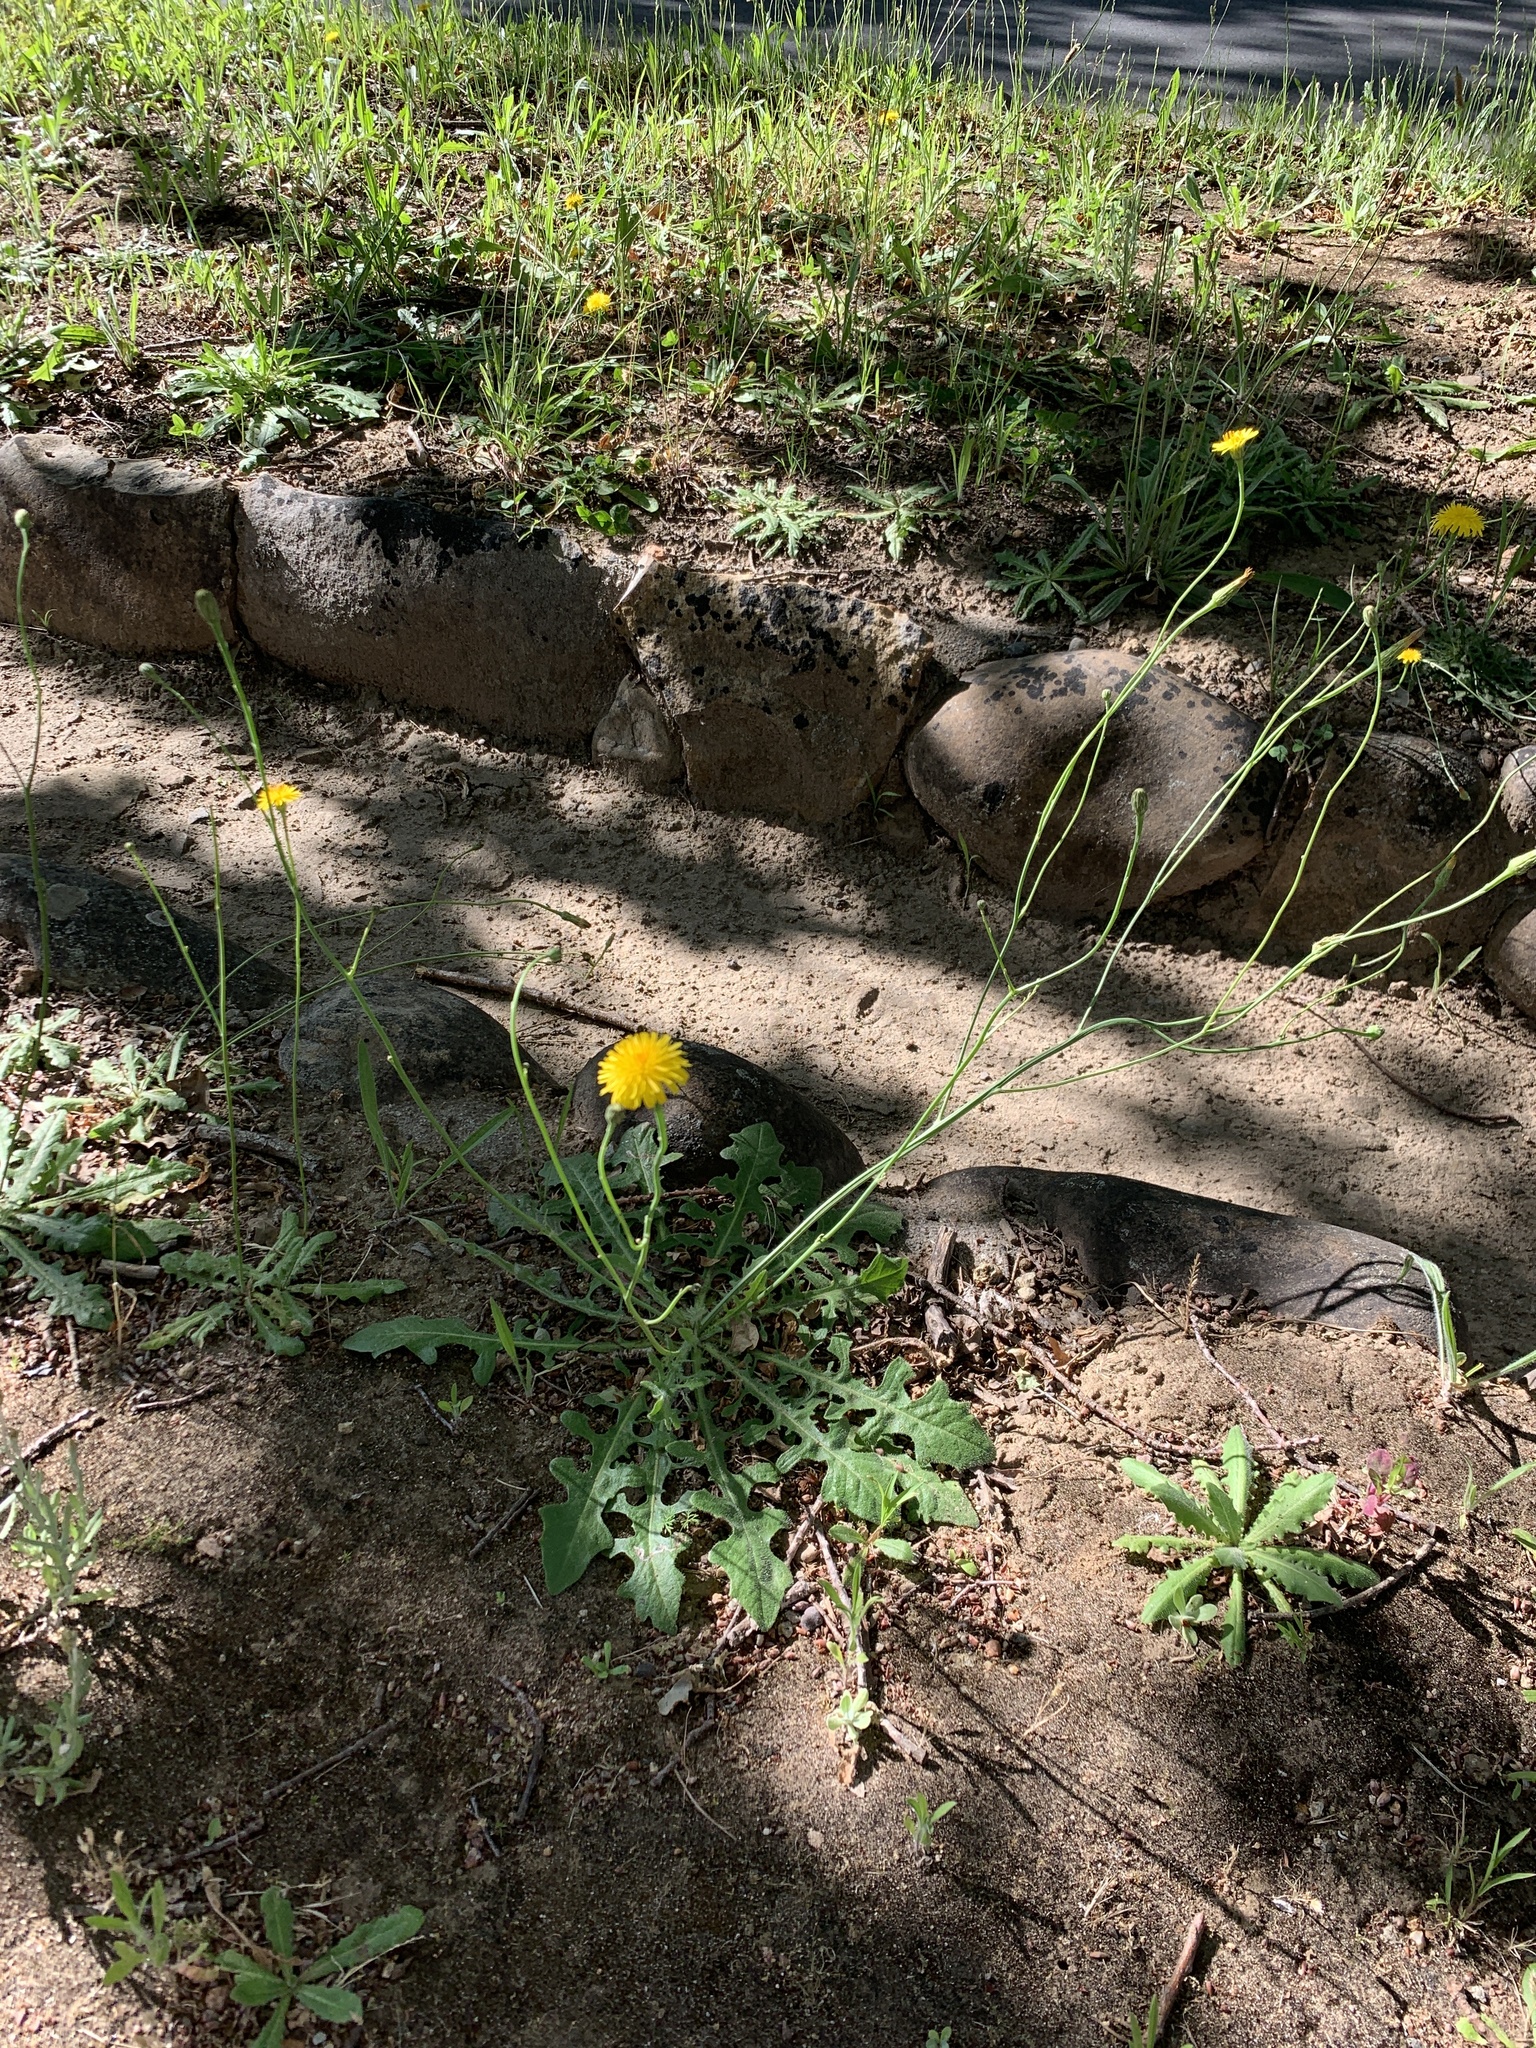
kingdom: Plantae
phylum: Tracheophyta
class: Magnoliopsida
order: Asterales
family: Asteraceae
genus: Hypochaeris
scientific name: Hypochaeris radicata
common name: Flatweed
